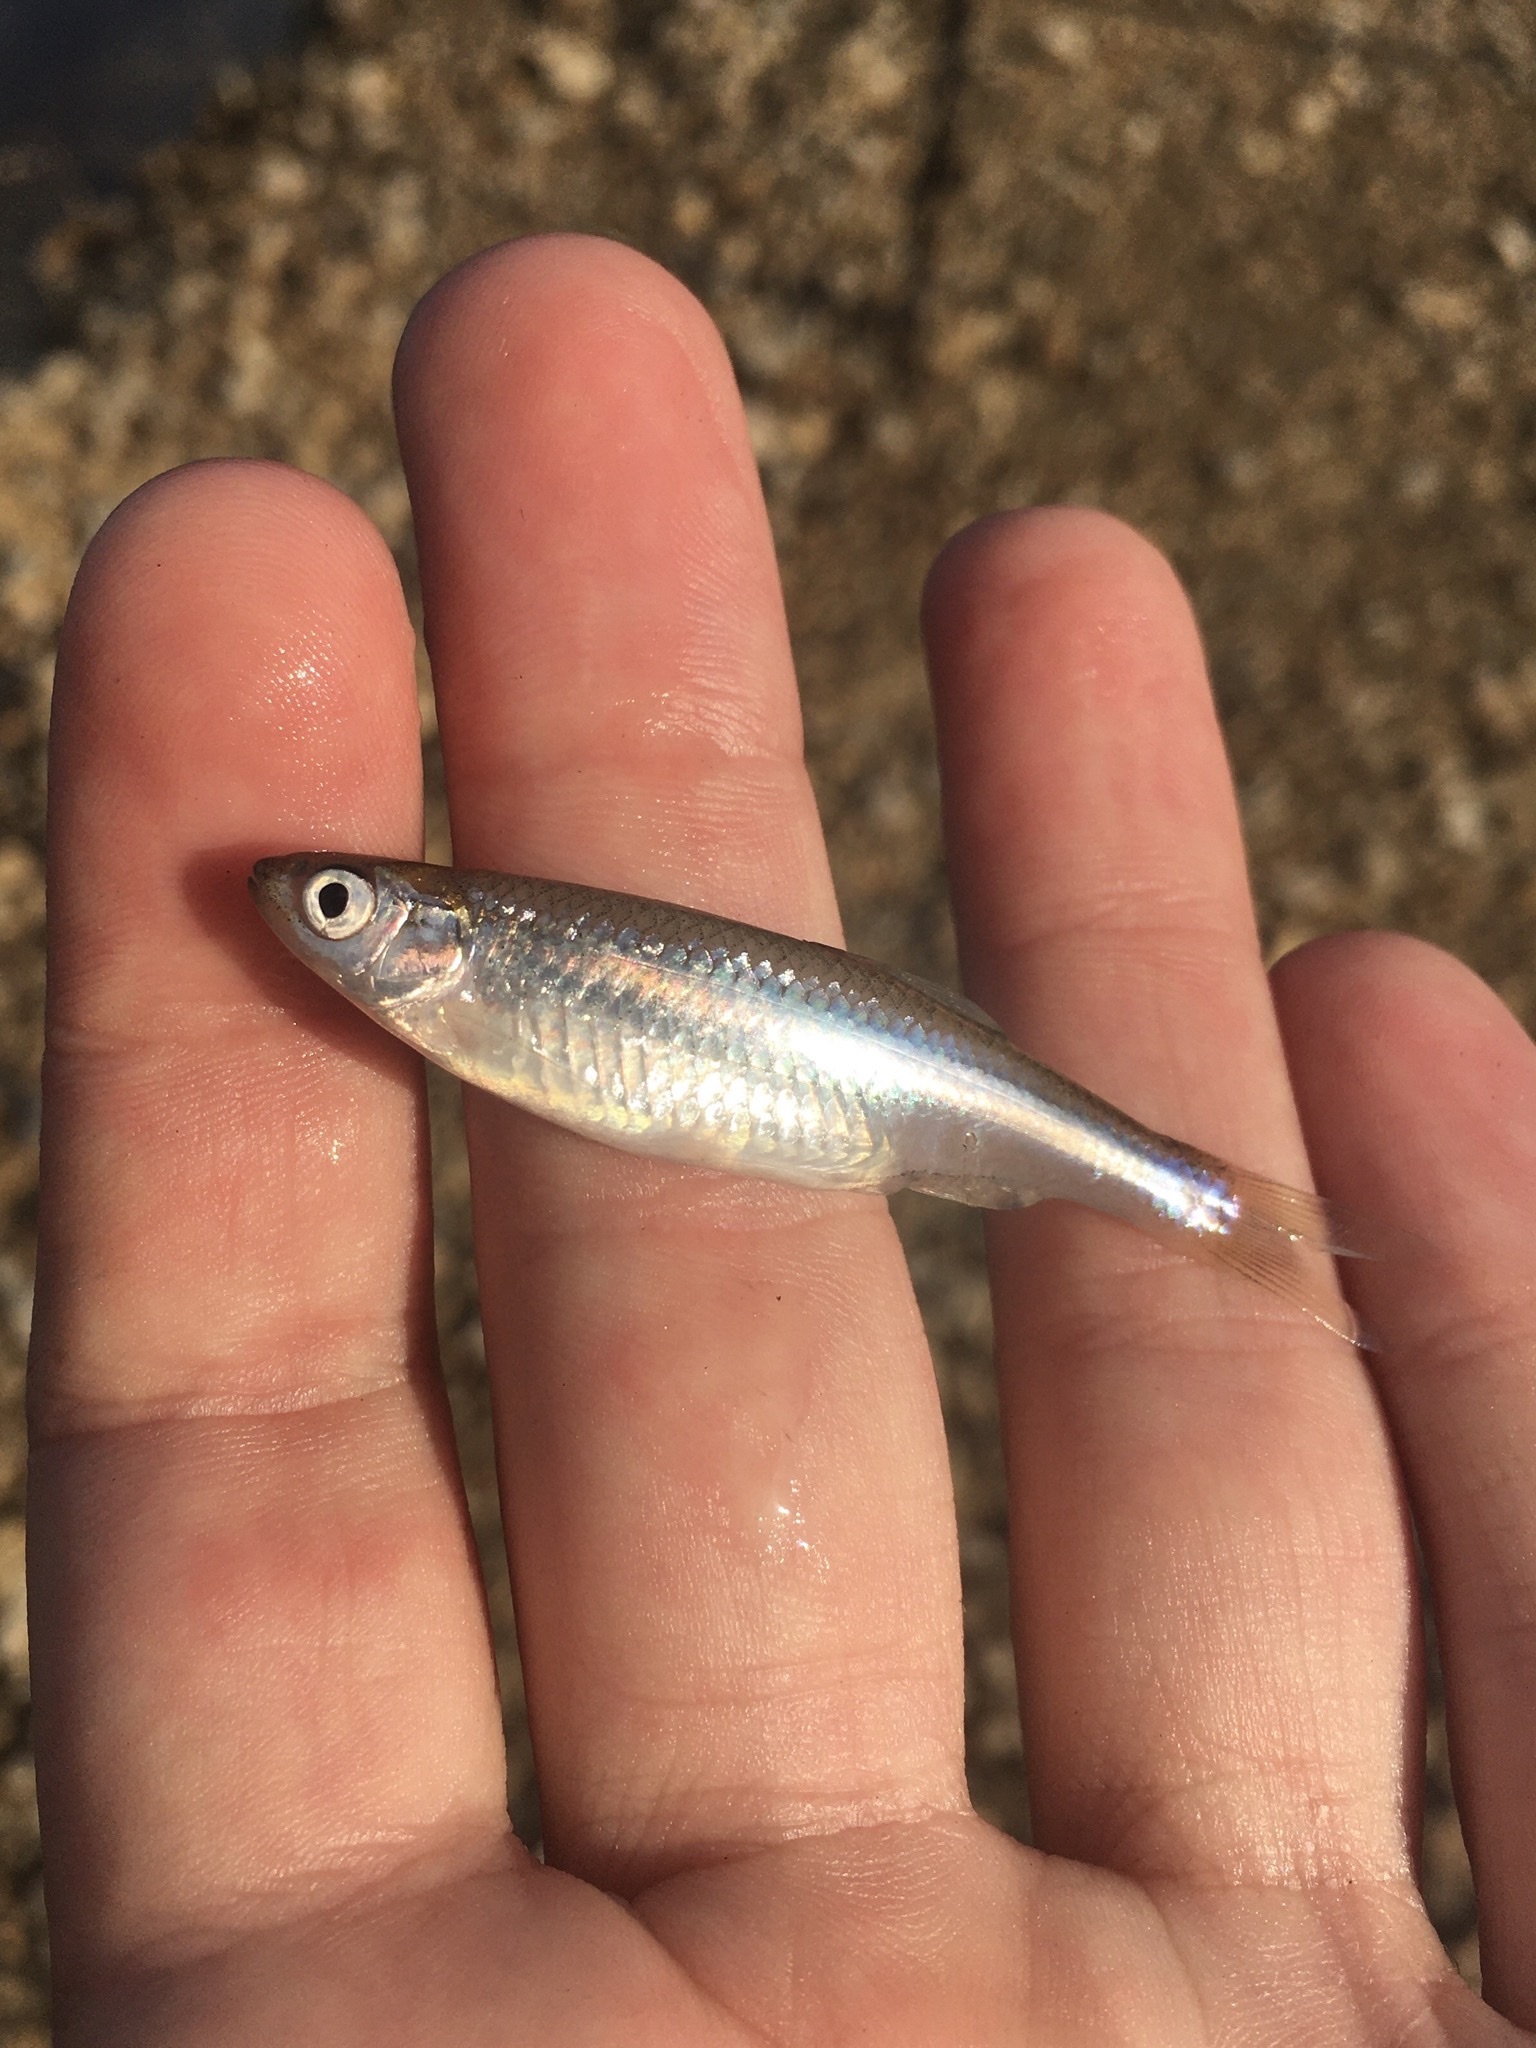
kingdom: Animalia
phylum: Chordata
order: Cypriniformes
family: Cyprinidae
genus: Notropis
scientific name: Notropis atherinoides
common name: Emerald shiner
